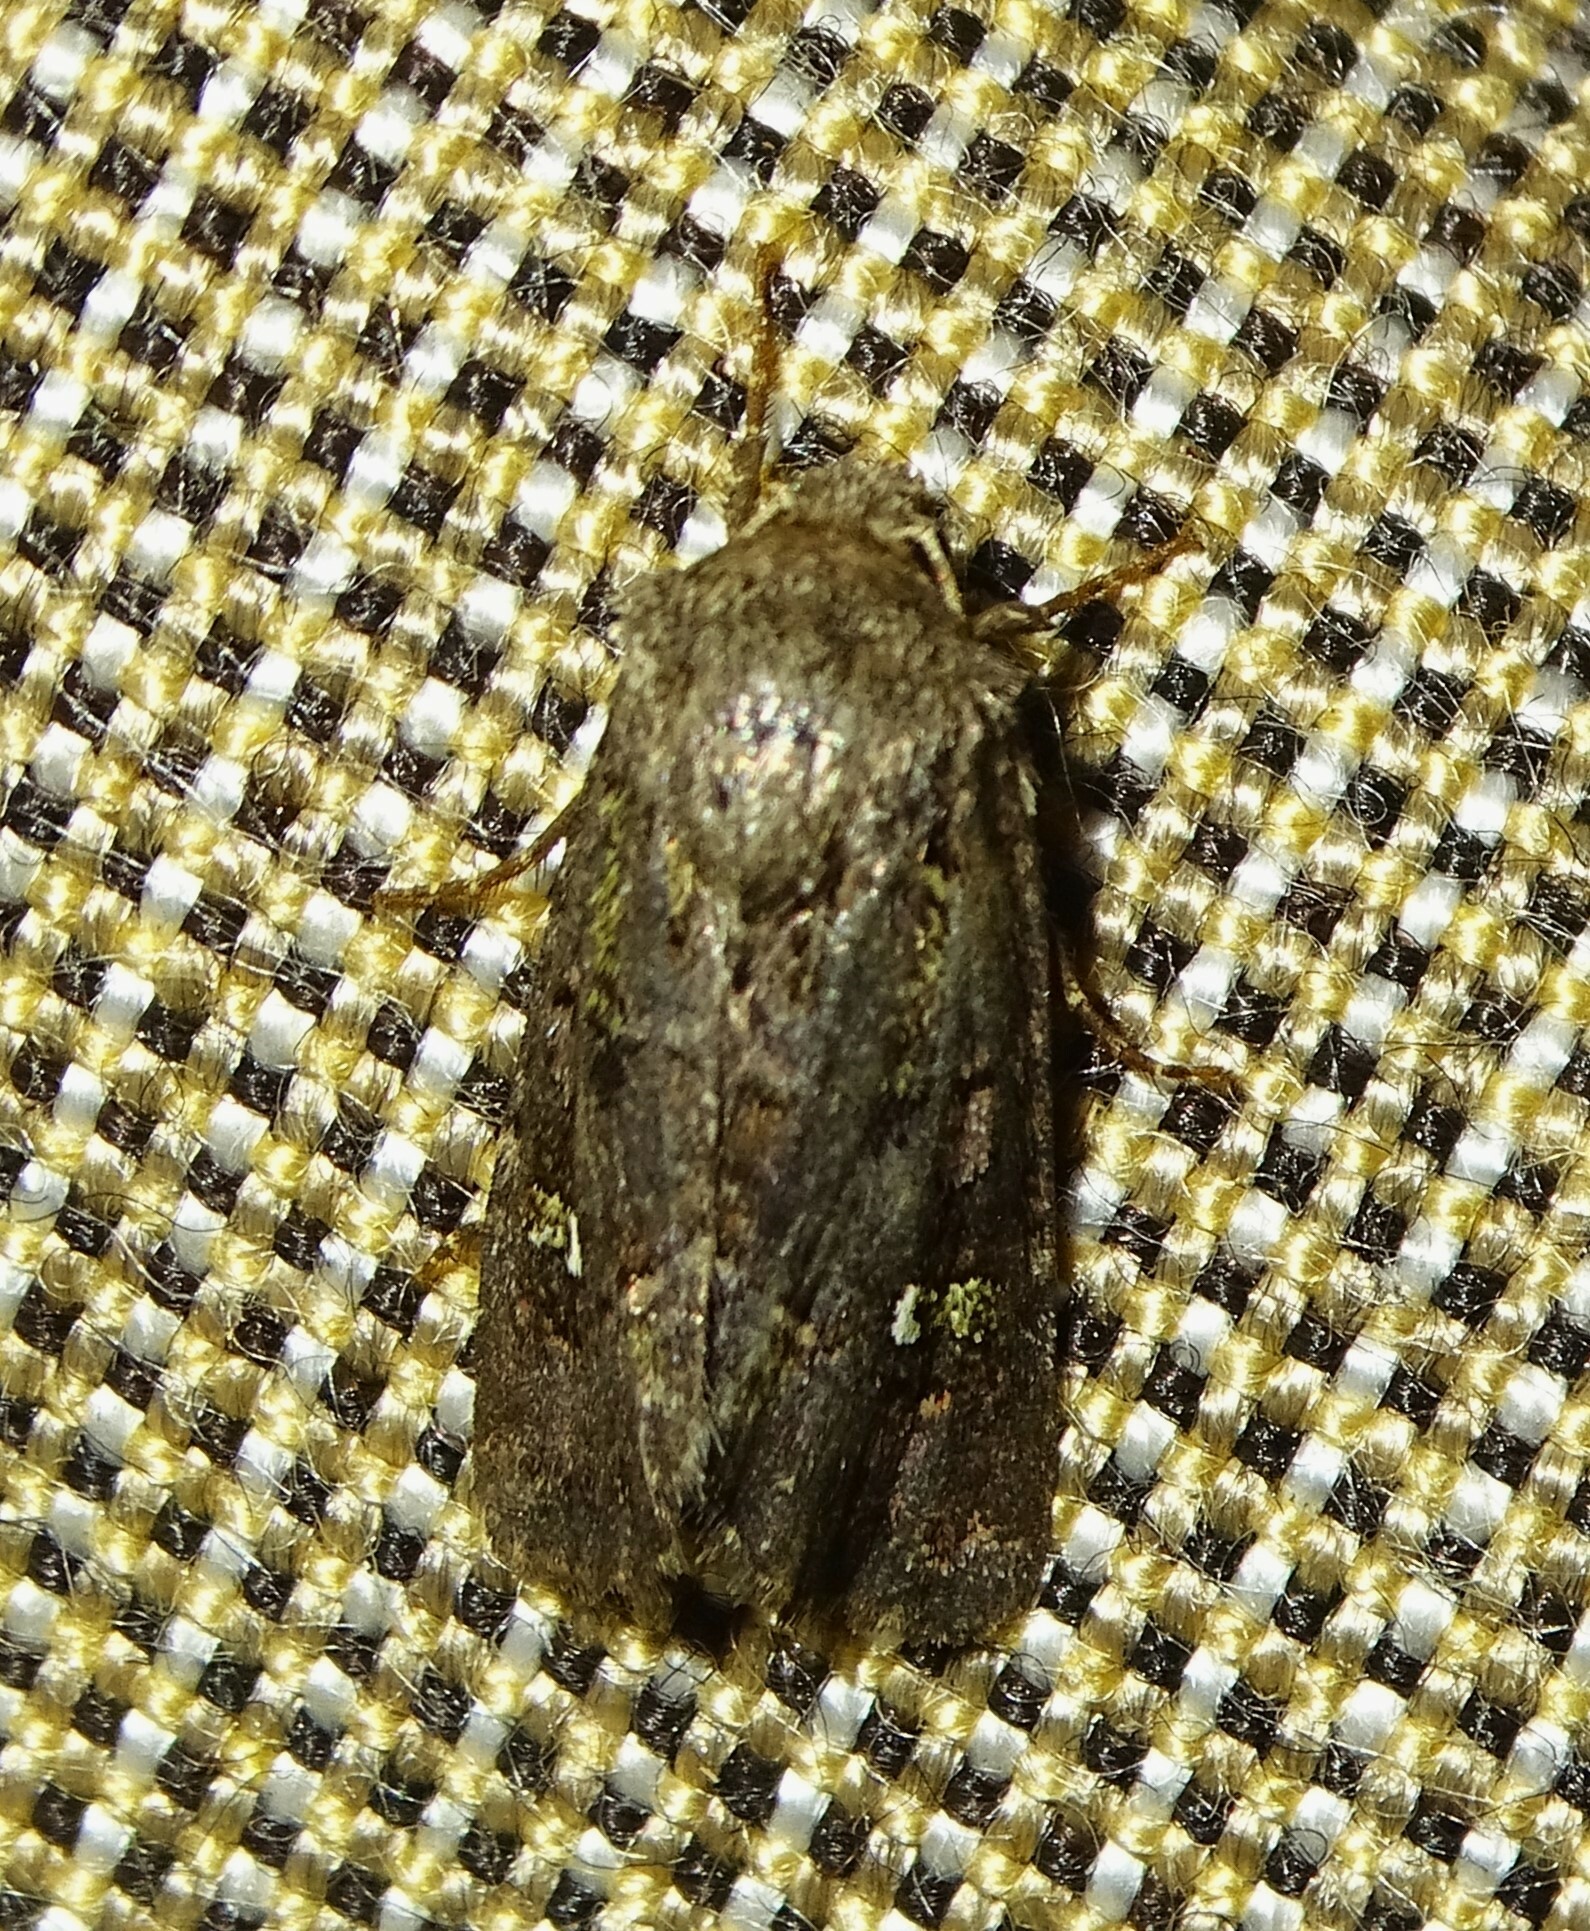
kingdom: Animalia
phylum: Arthropoda
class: Insecta
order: Lepidoptera
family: Noctuidae
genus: Lacinipolia
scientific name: Lacinipolia renigera
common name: Kidney-spotted minor
